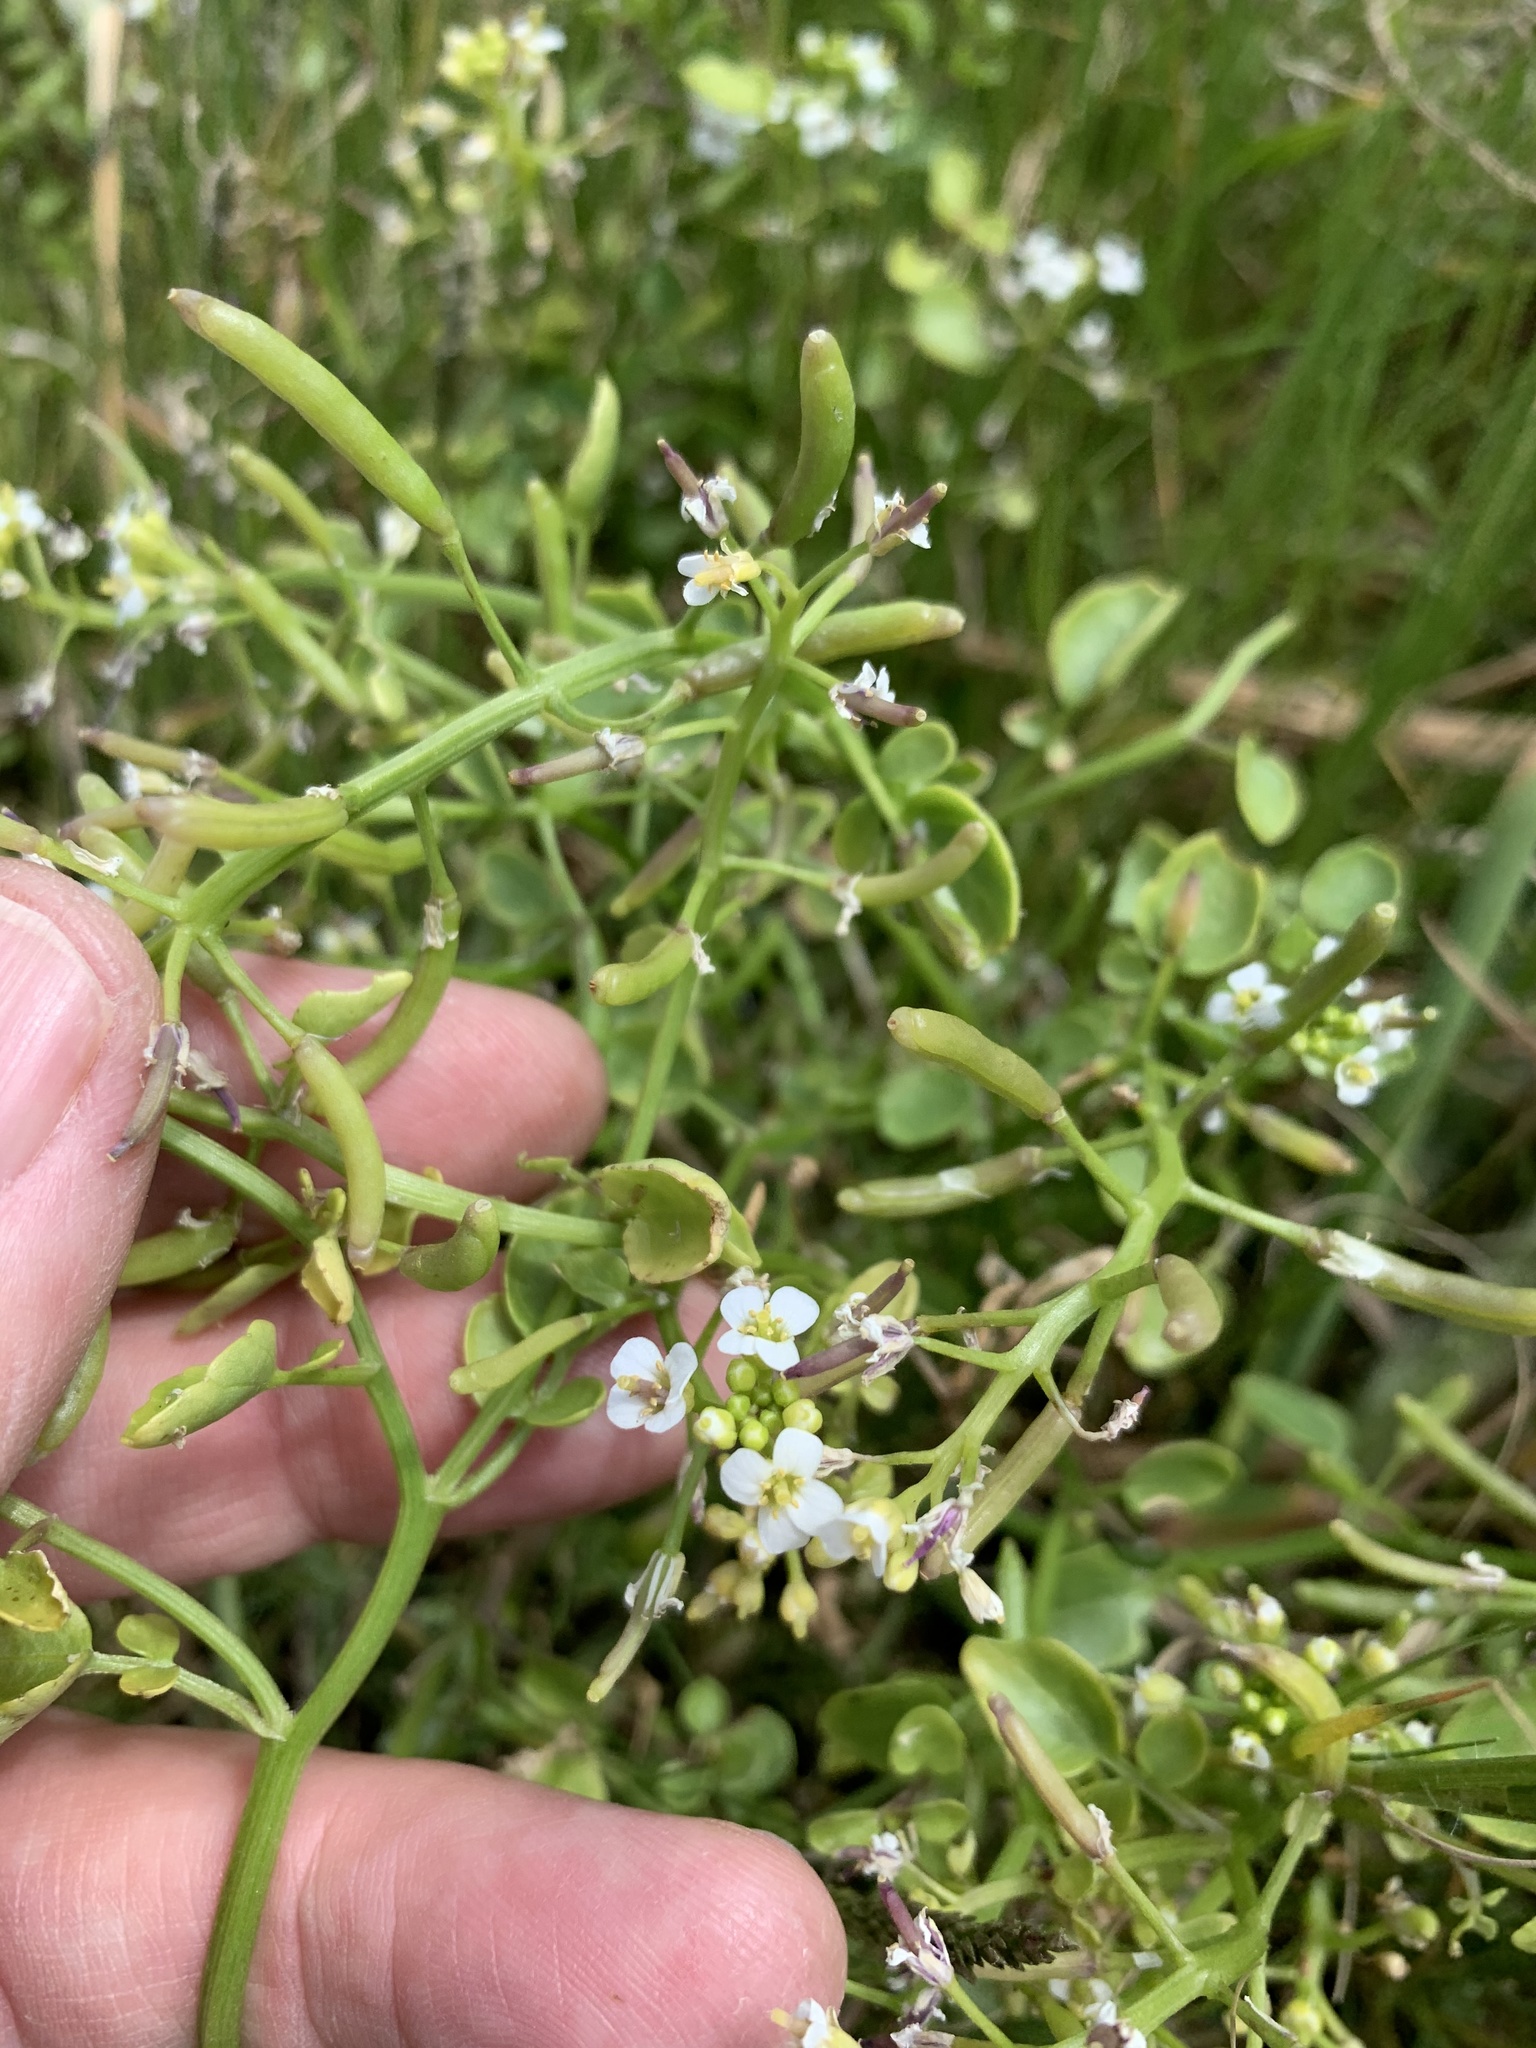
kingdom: Plantae
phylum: Tracheophyta
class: Magnoliopsida
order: Brassicales
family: Brassicaceae
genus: Nasturtium
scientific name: Nasturtium officinale
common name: Watercress
